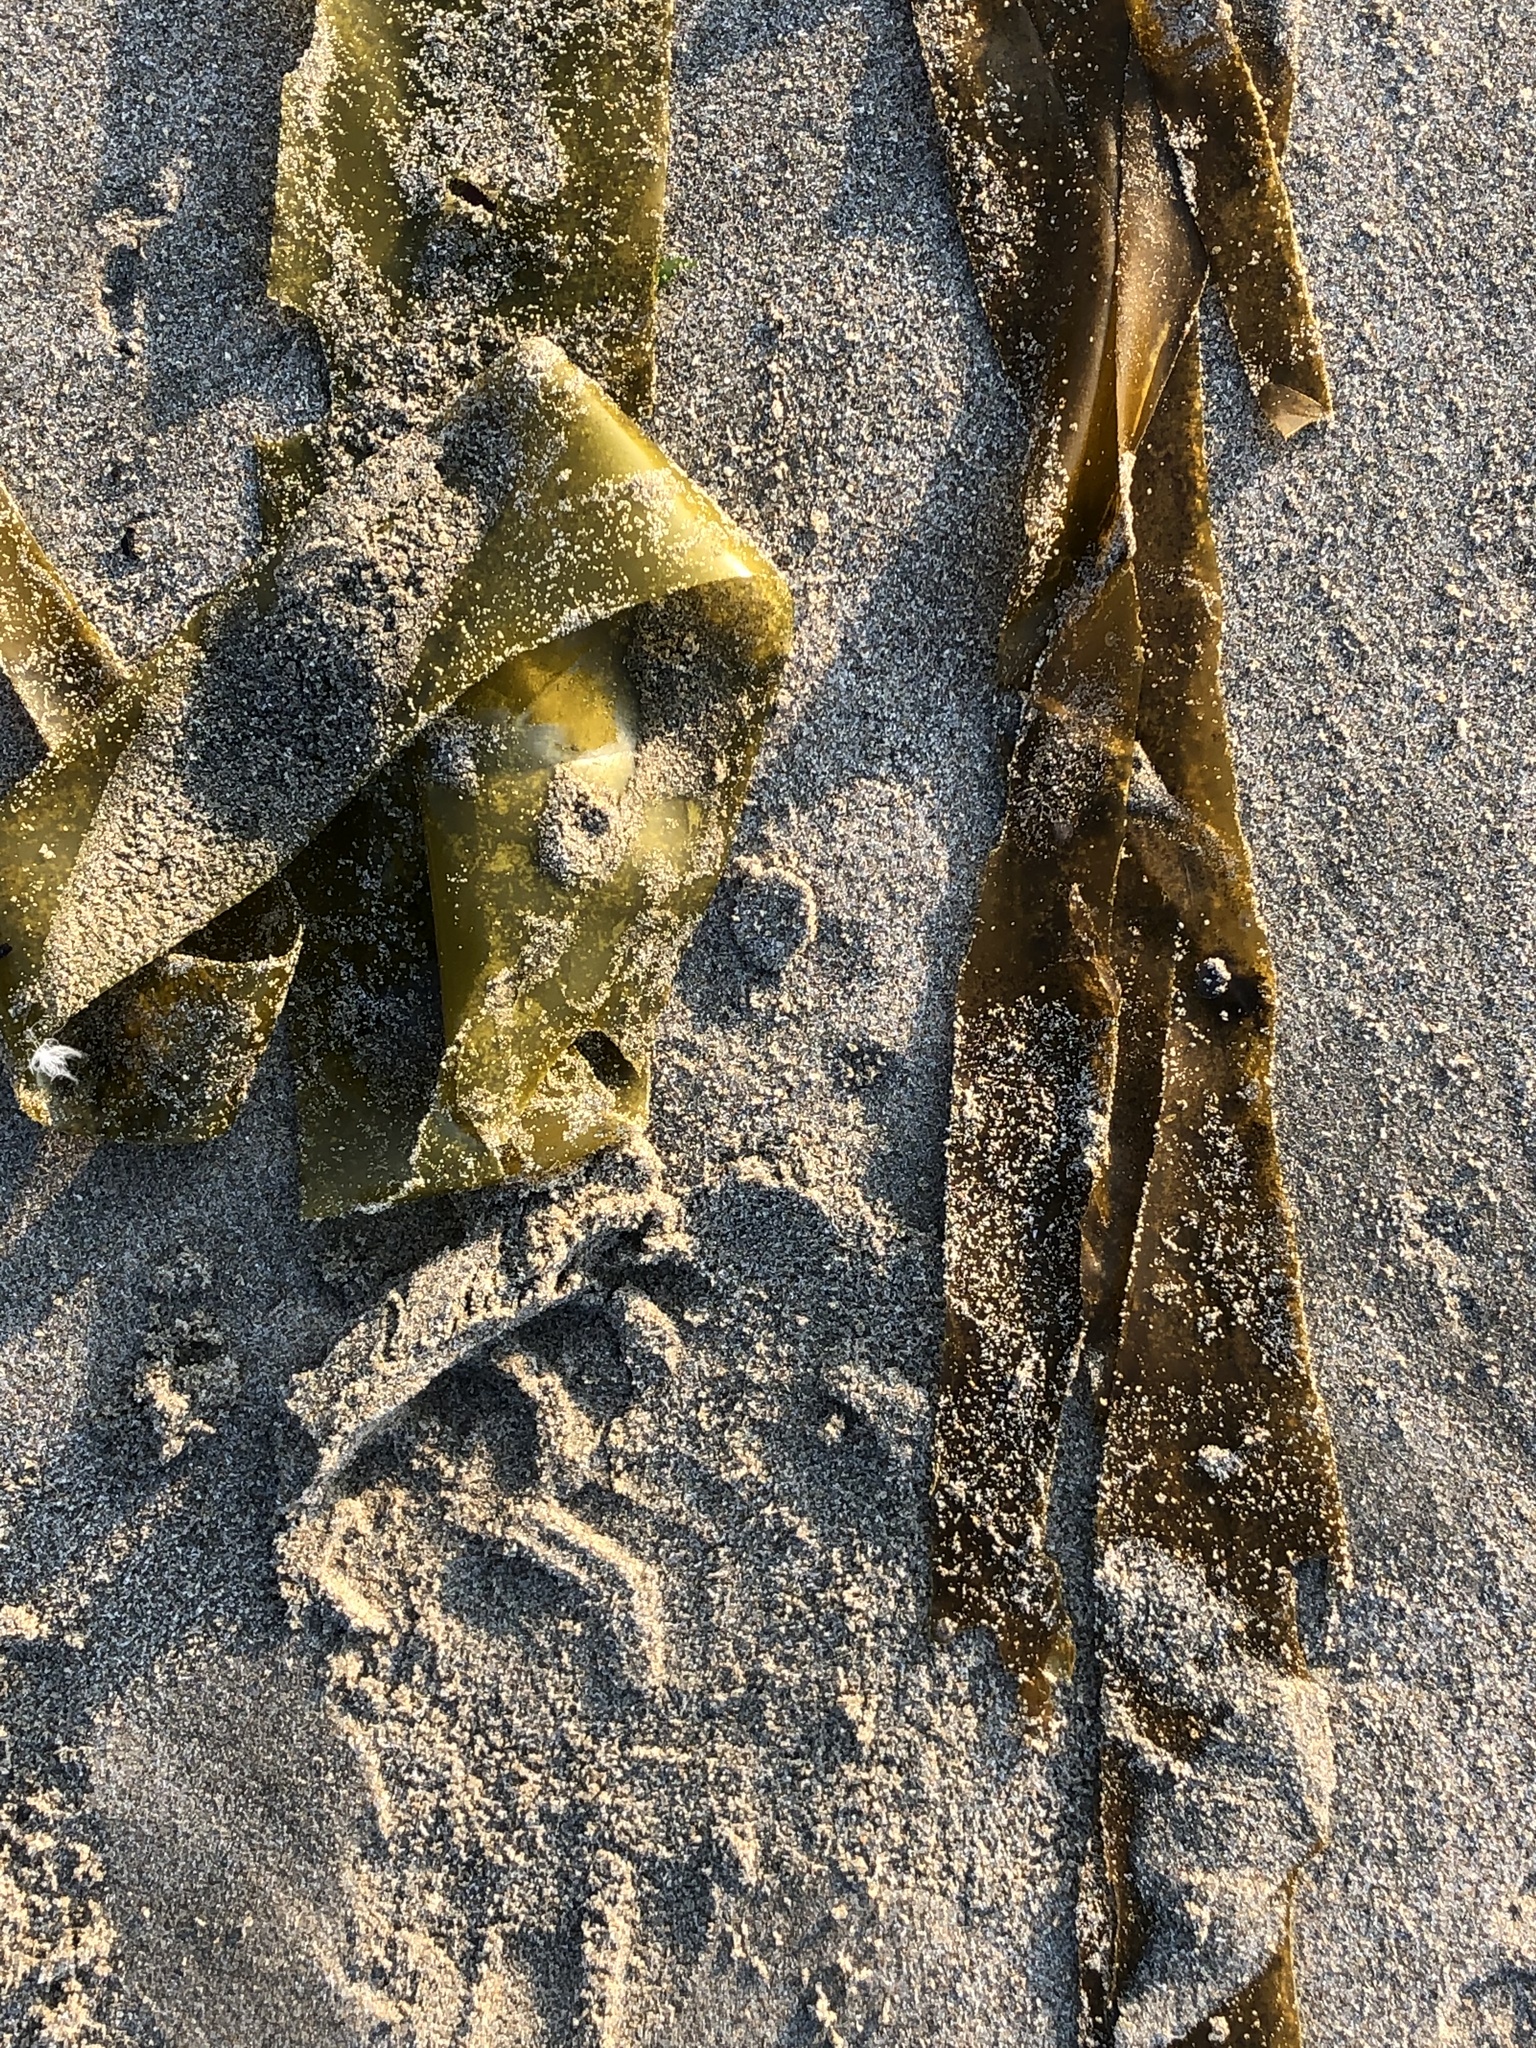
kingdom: Chromista
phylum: Ochrophyta
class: Phaeophyceae
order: Laminariales
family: Laminariaceae
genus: Nereocystis
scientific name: Nereocystis luetkeana
